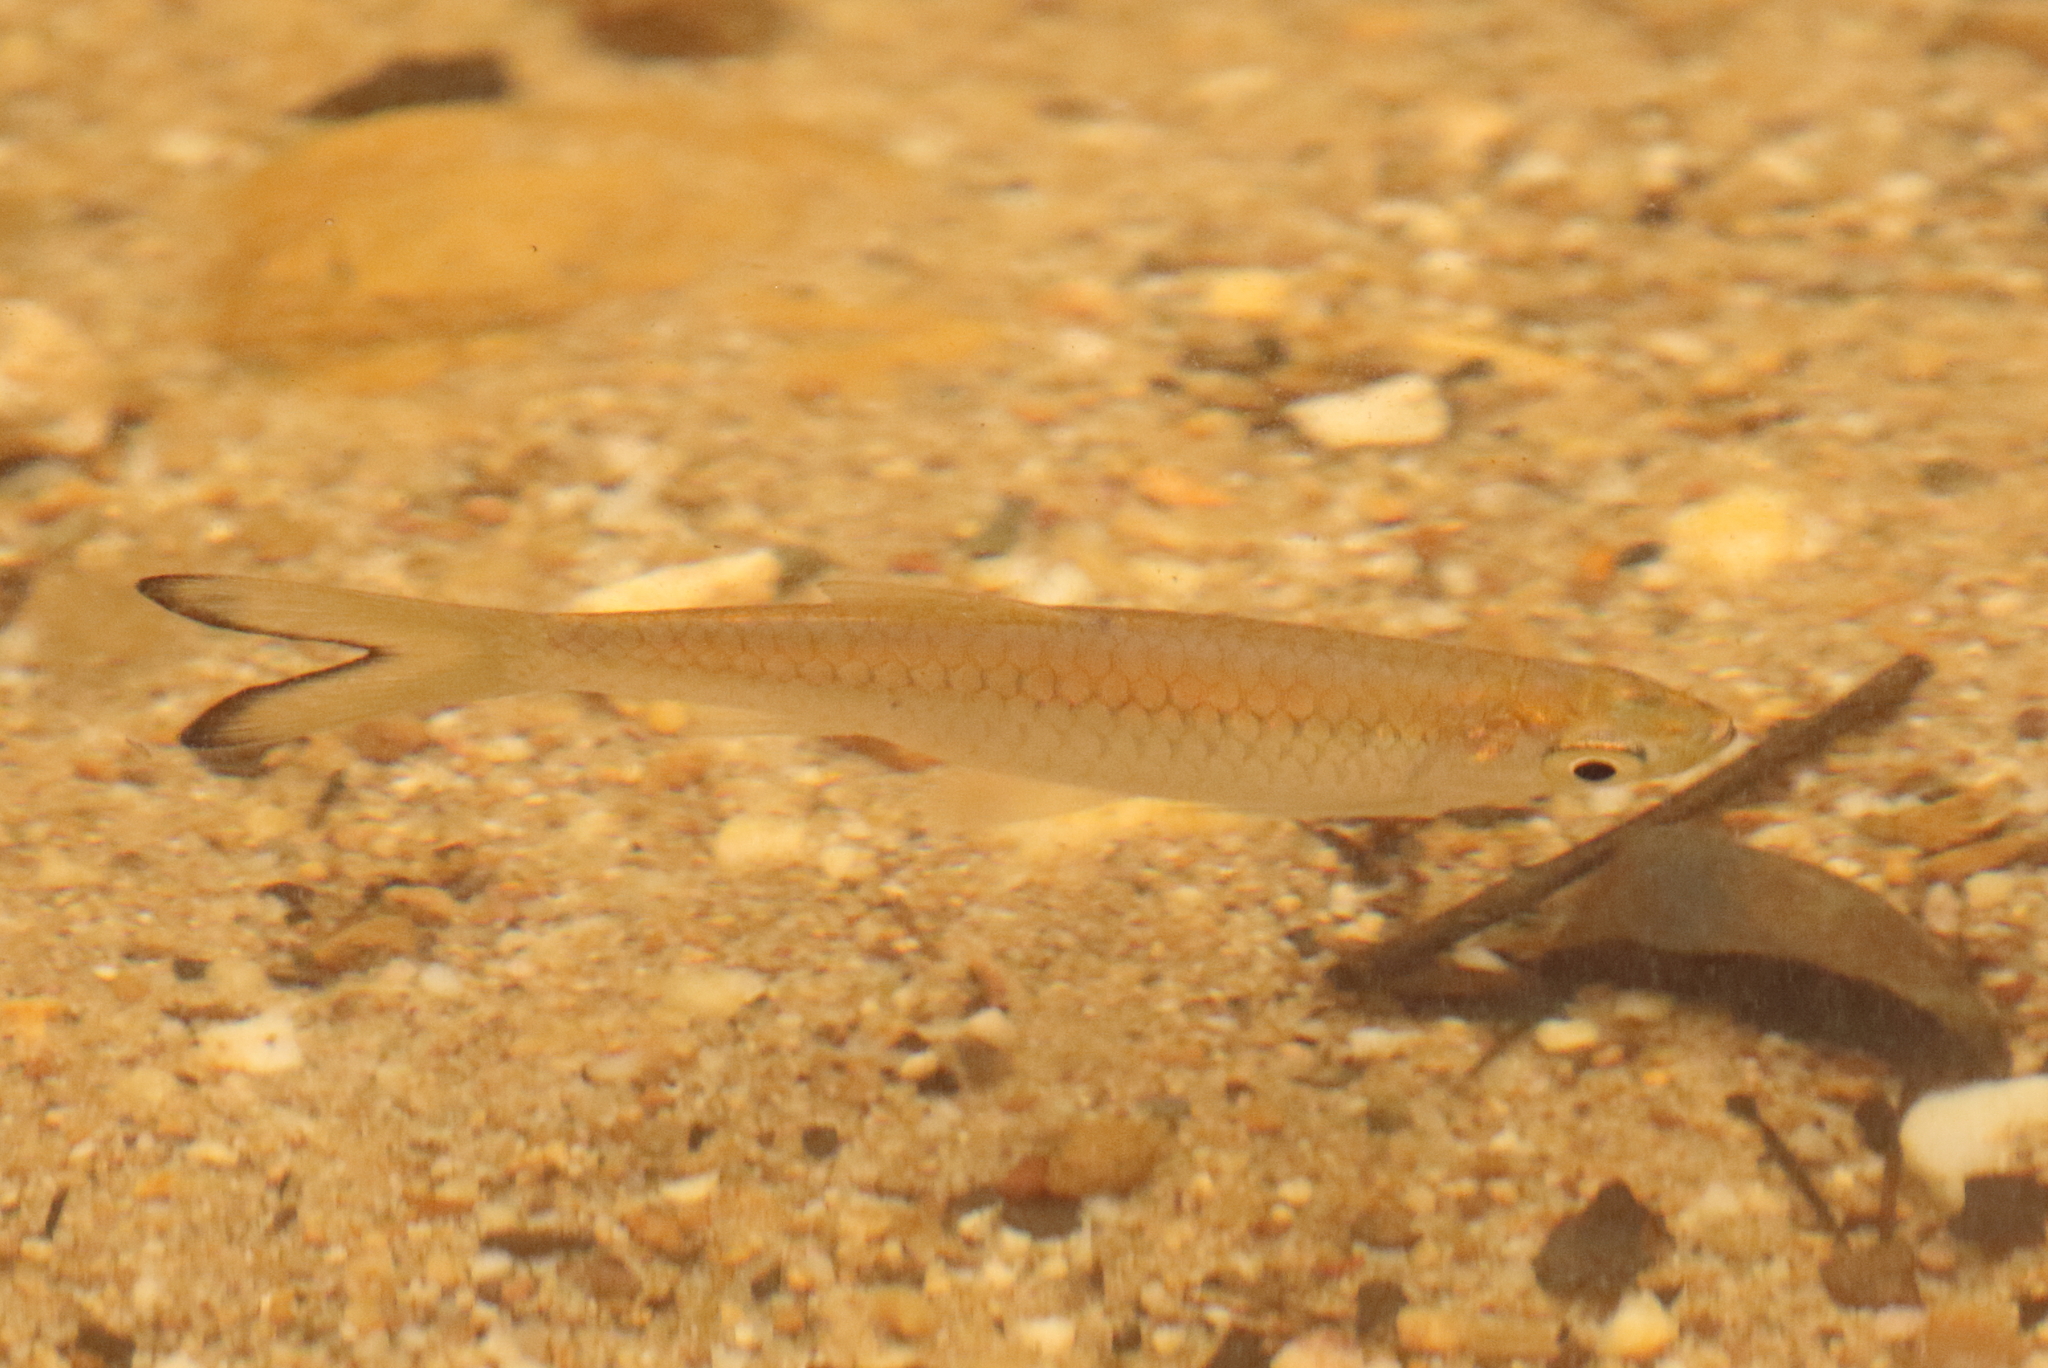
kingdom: Animalia
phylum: Chordata
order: Cypriniformes
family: Cyprinidae
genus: Rasbora
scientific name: Rasbora caudimaculata
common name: Greater scissortail
